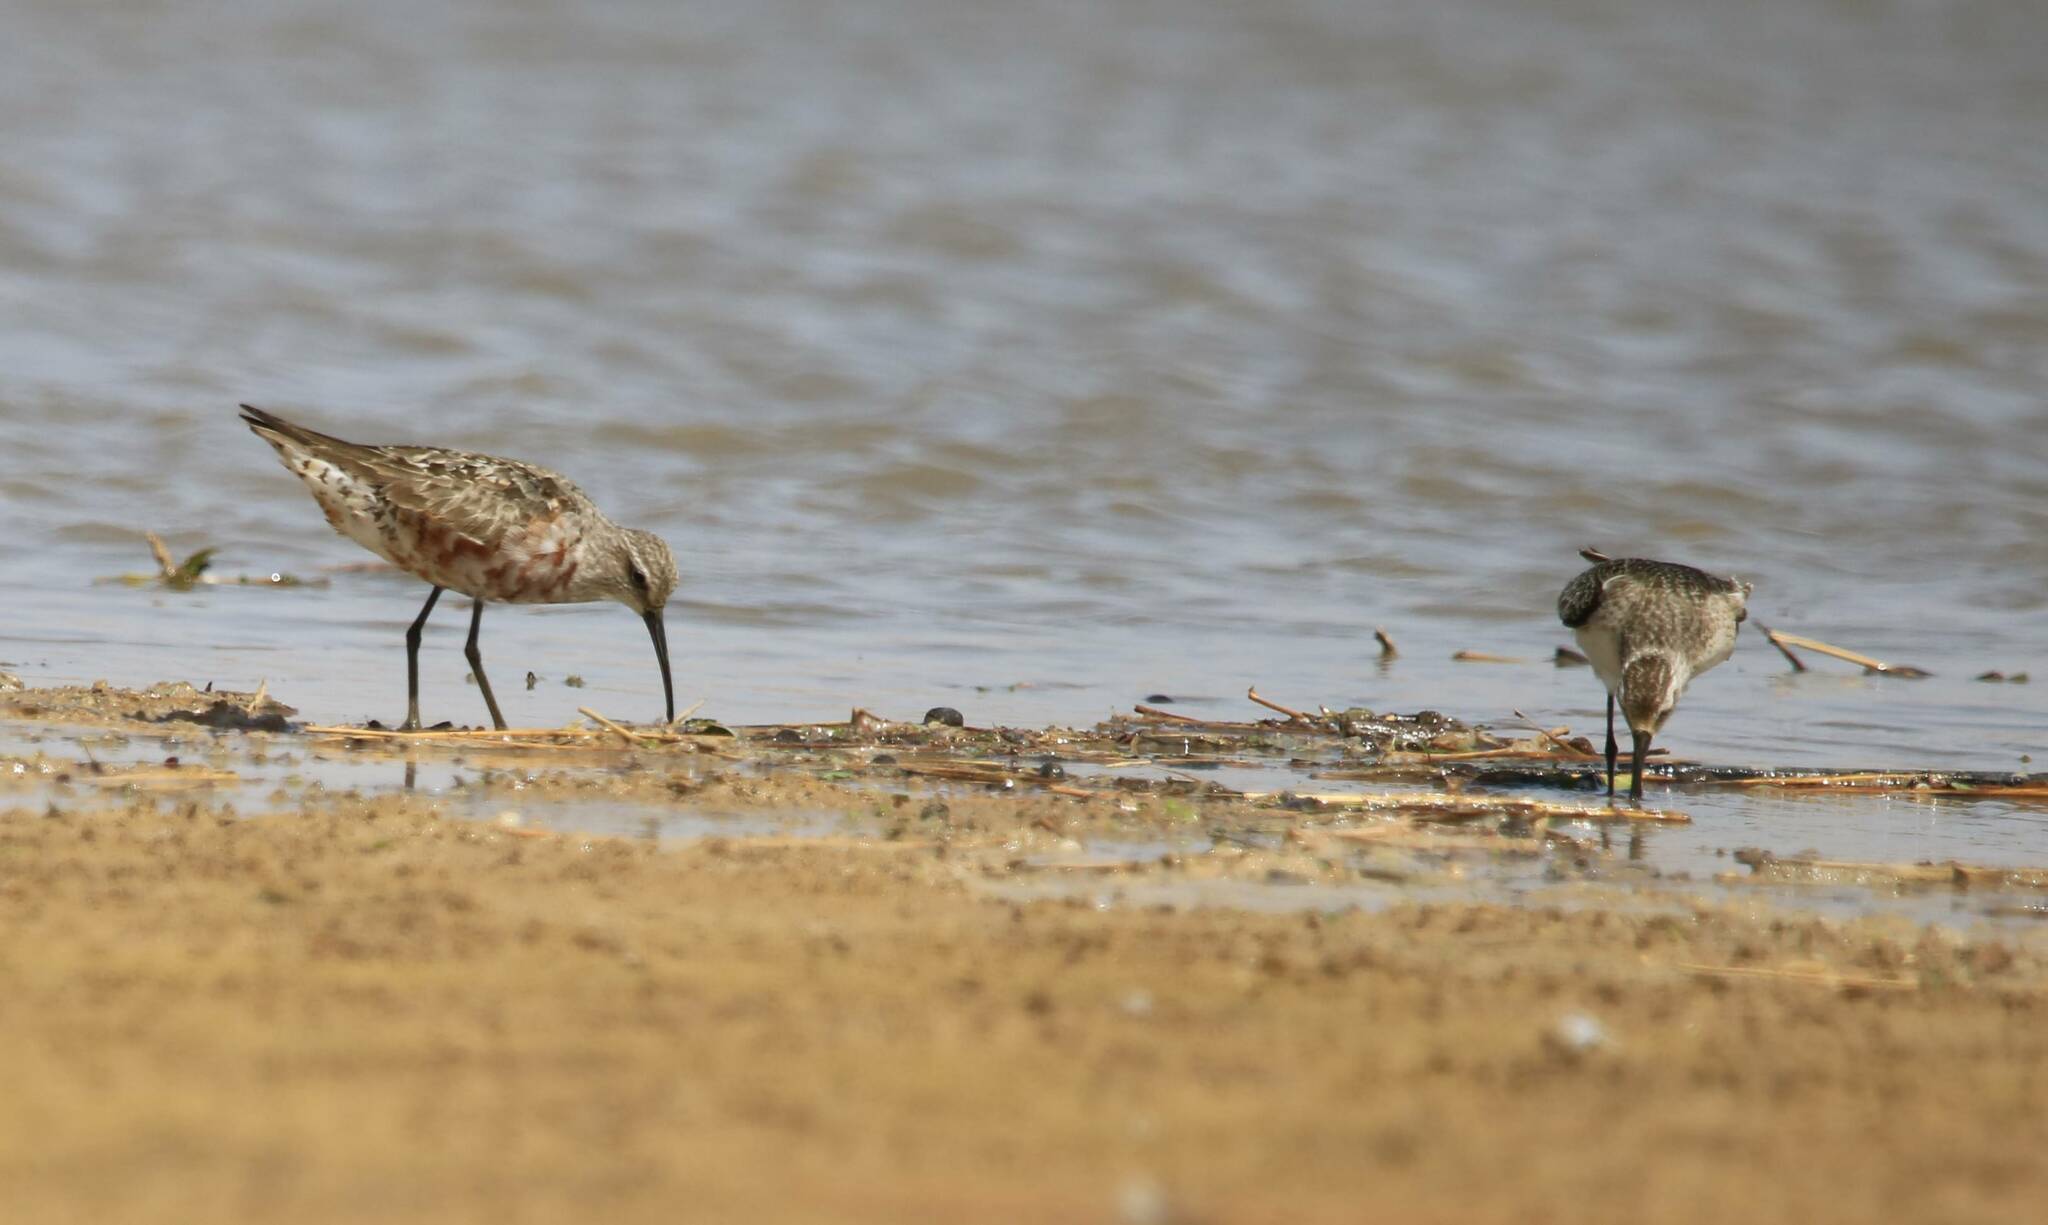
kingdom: Animalia
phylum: Chordata
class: Aves
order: Charadriiformes
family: Scolopacidae
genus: Calidris
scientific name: Calidris ferruginea
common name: Curlew sandpiper
